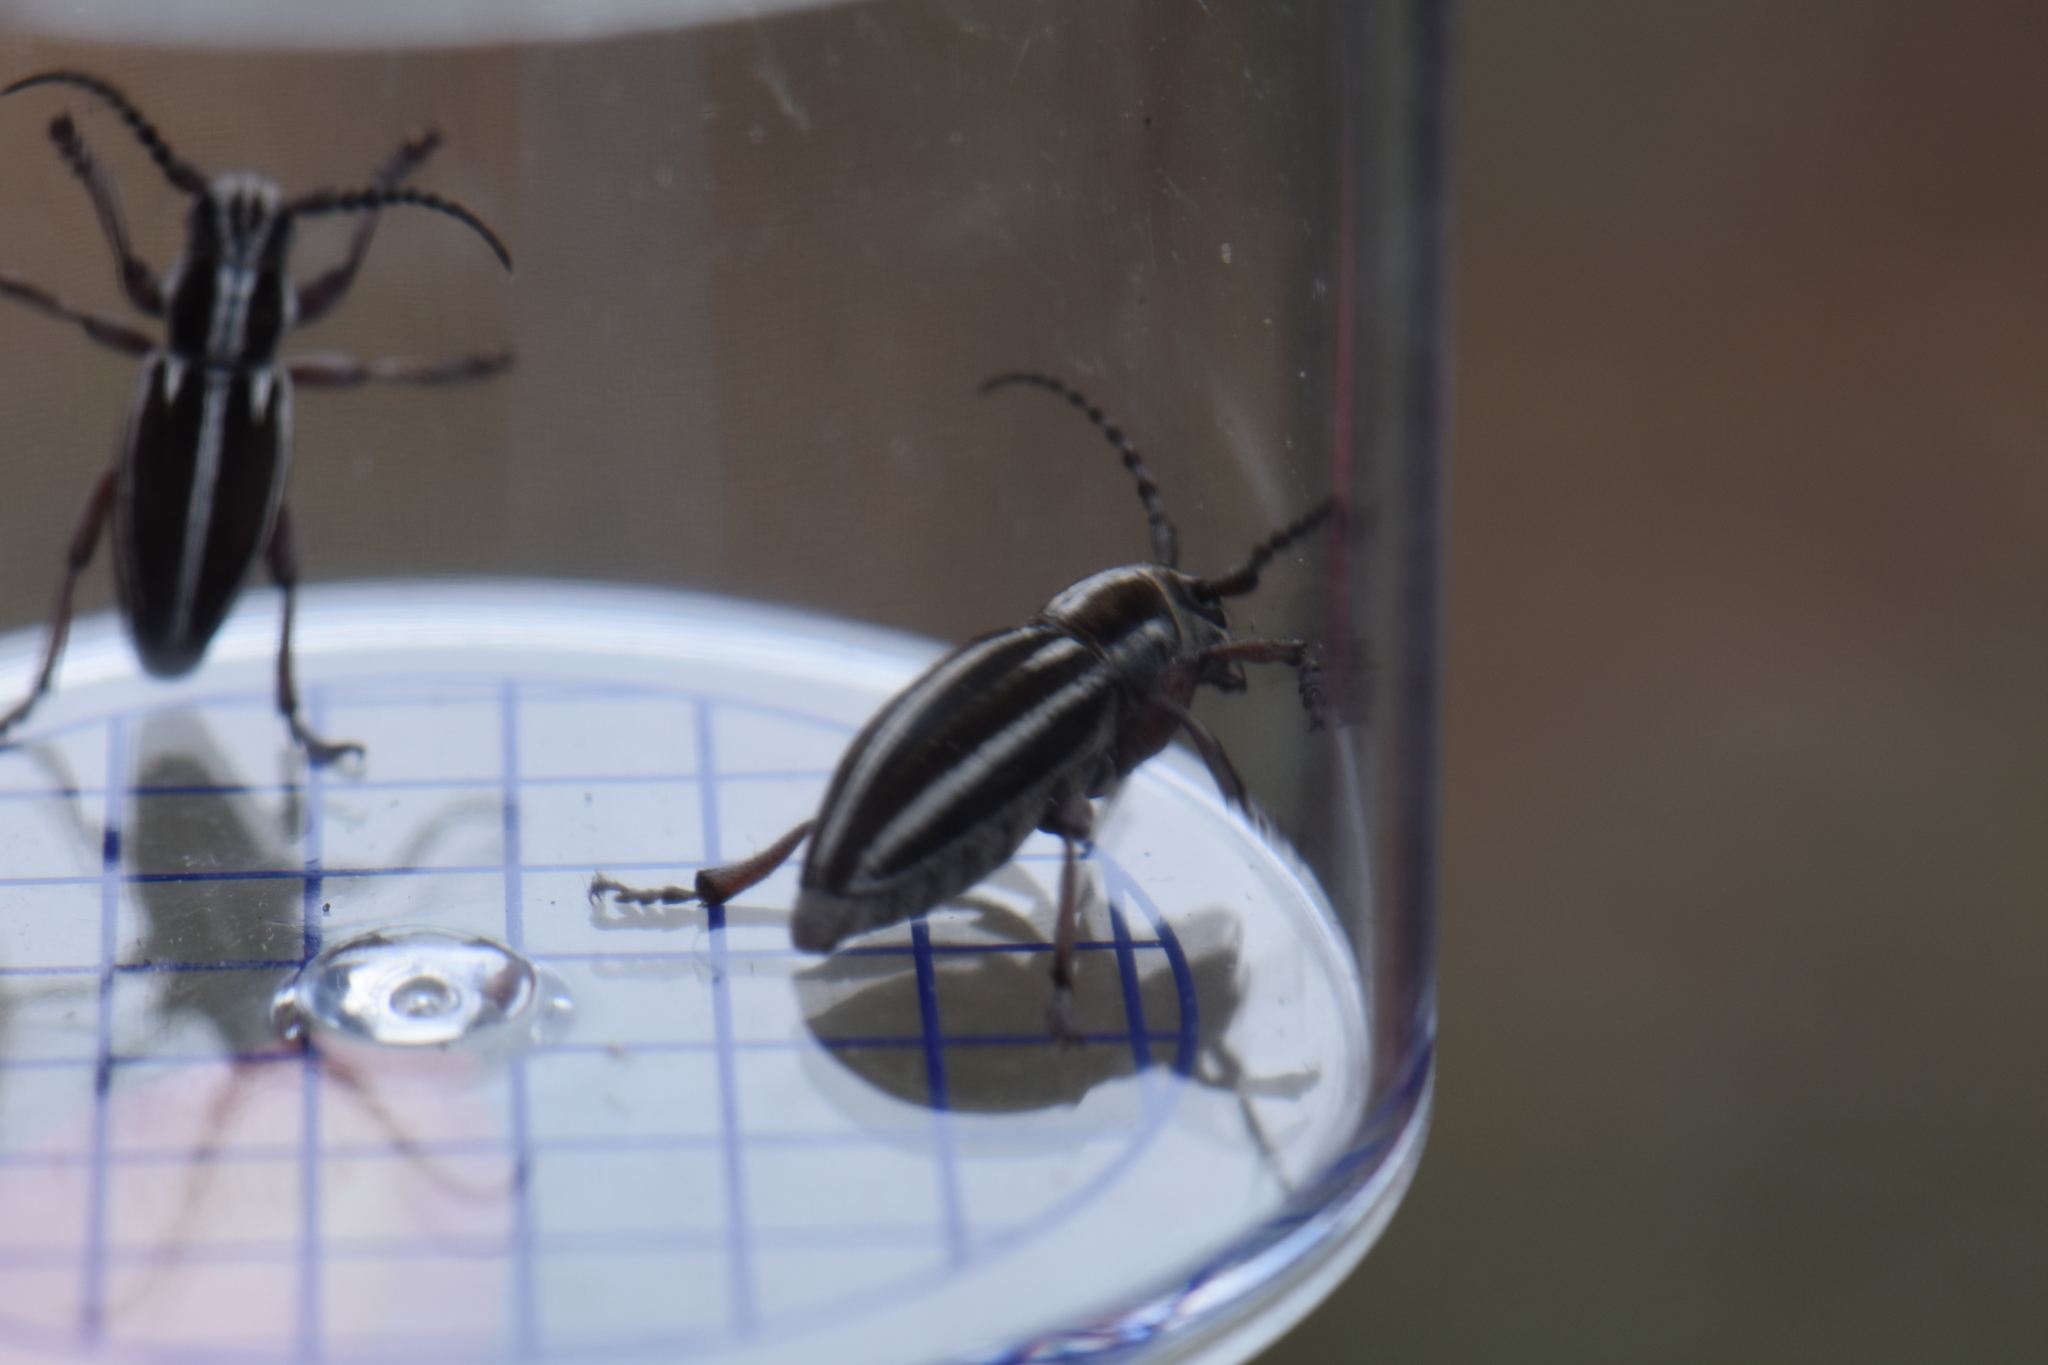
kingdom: Animalia
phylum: Arthropoda
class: Insecta
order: Coleoptera
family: Cerambycidae
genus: Iberodorcadion
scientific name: Iberodorcadion molitor
